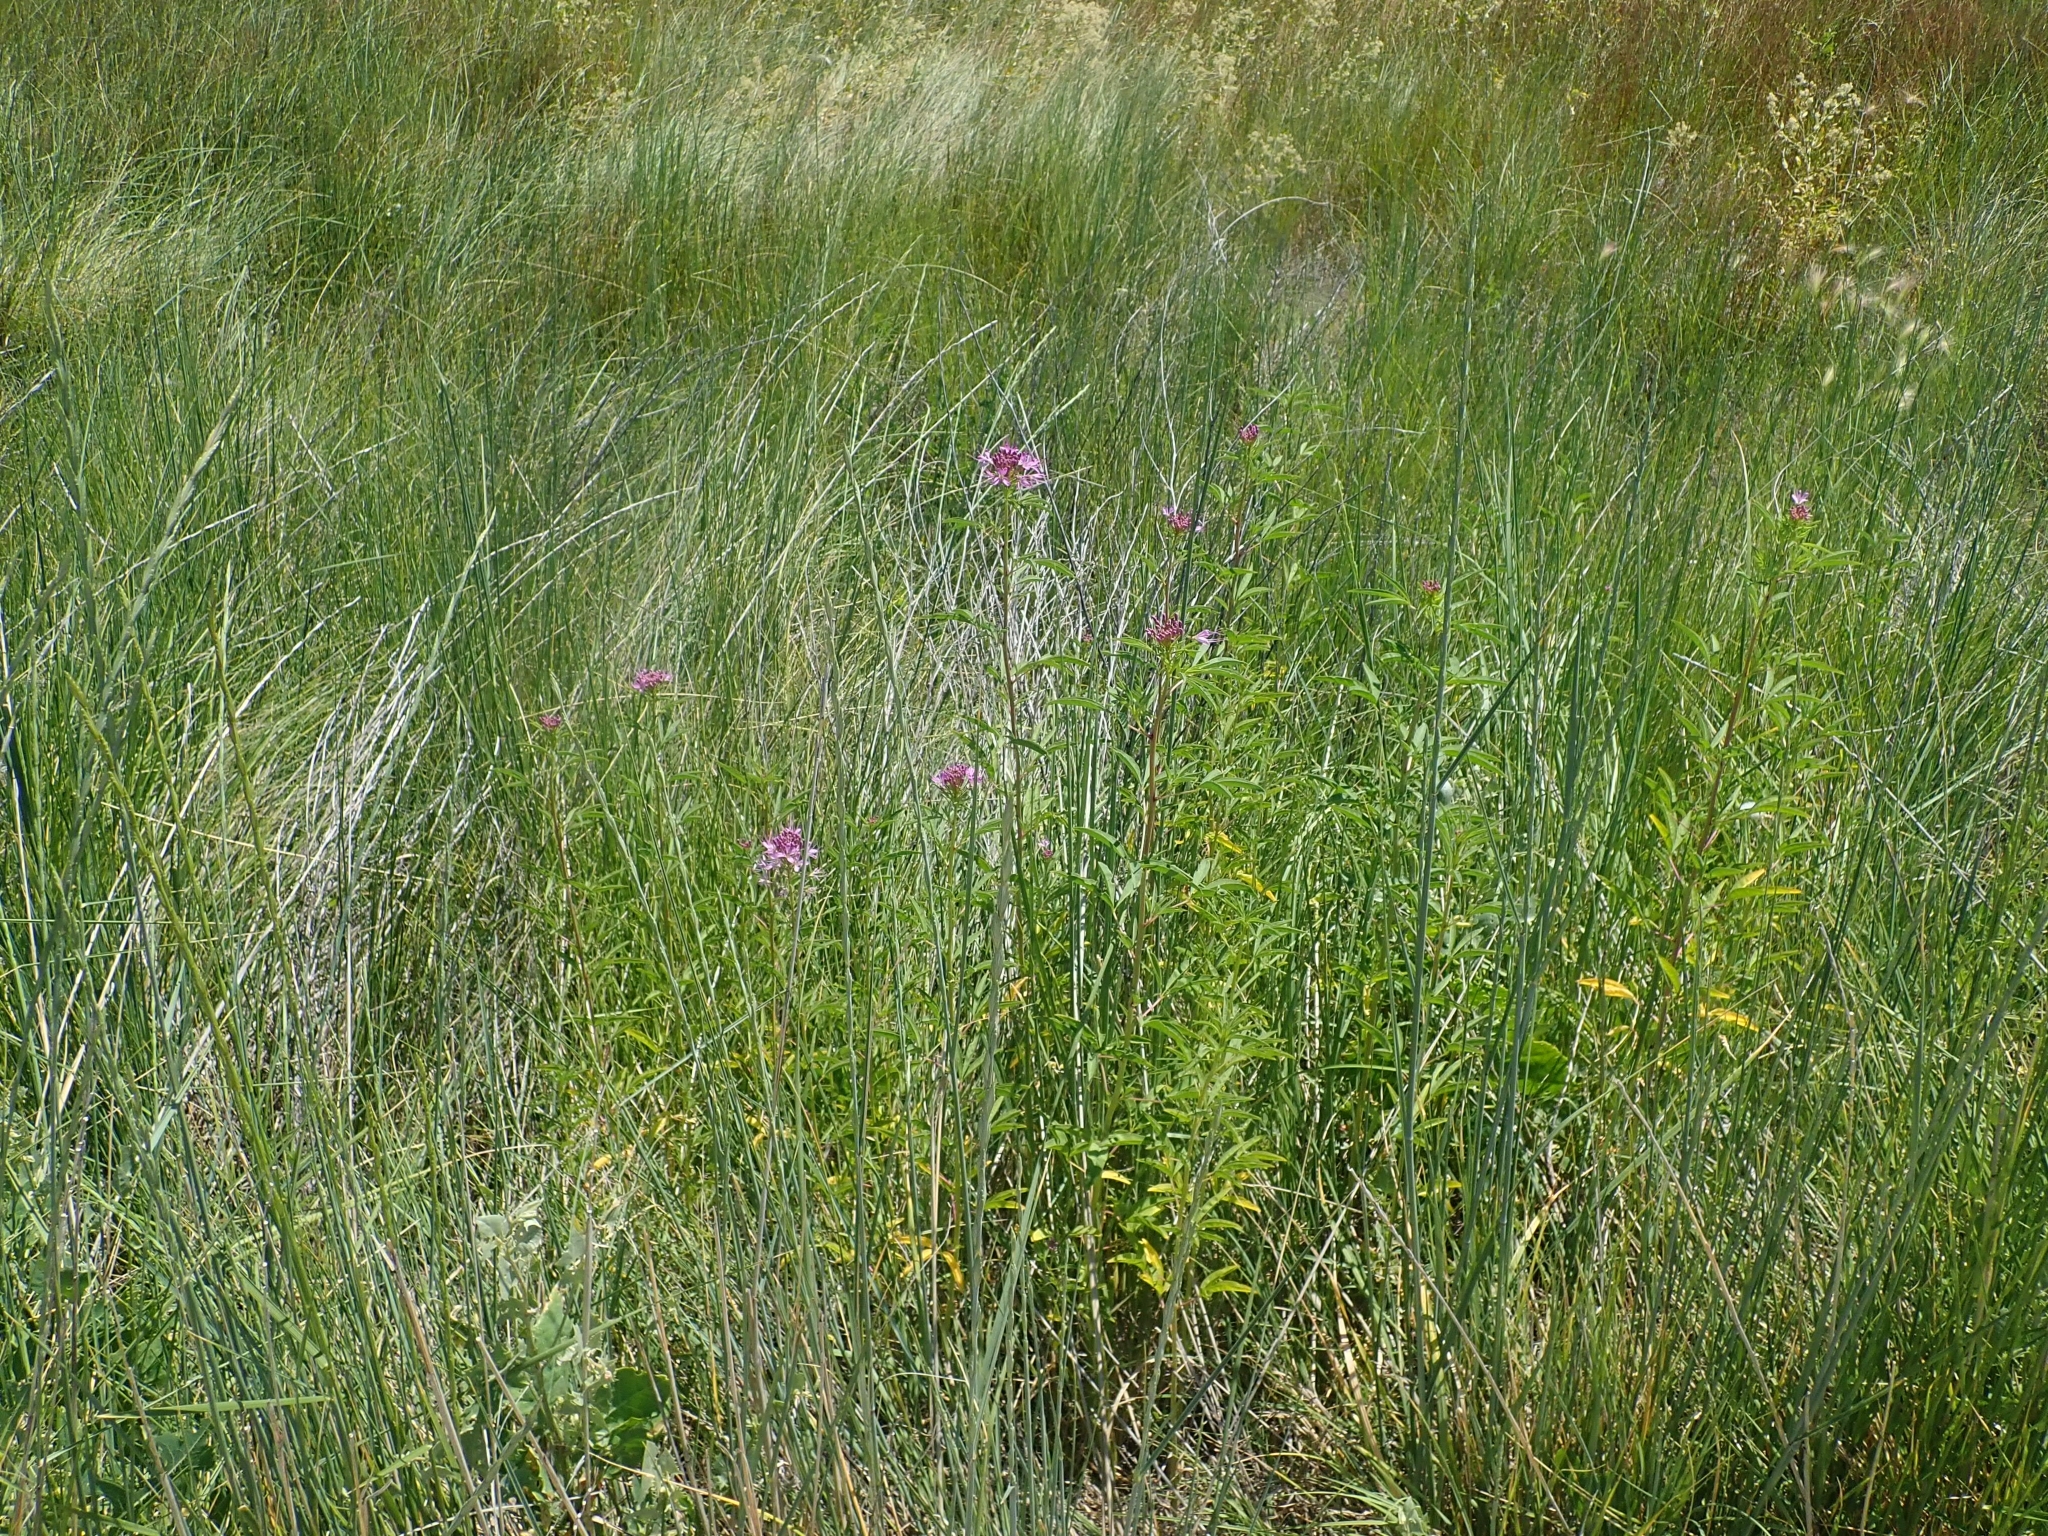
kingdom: Plantae
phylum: Tracheophyta
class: Magnoliopsida
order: Brassicales
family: Cleomaceae
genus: Cleomella
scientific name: Cleomella serrulata
